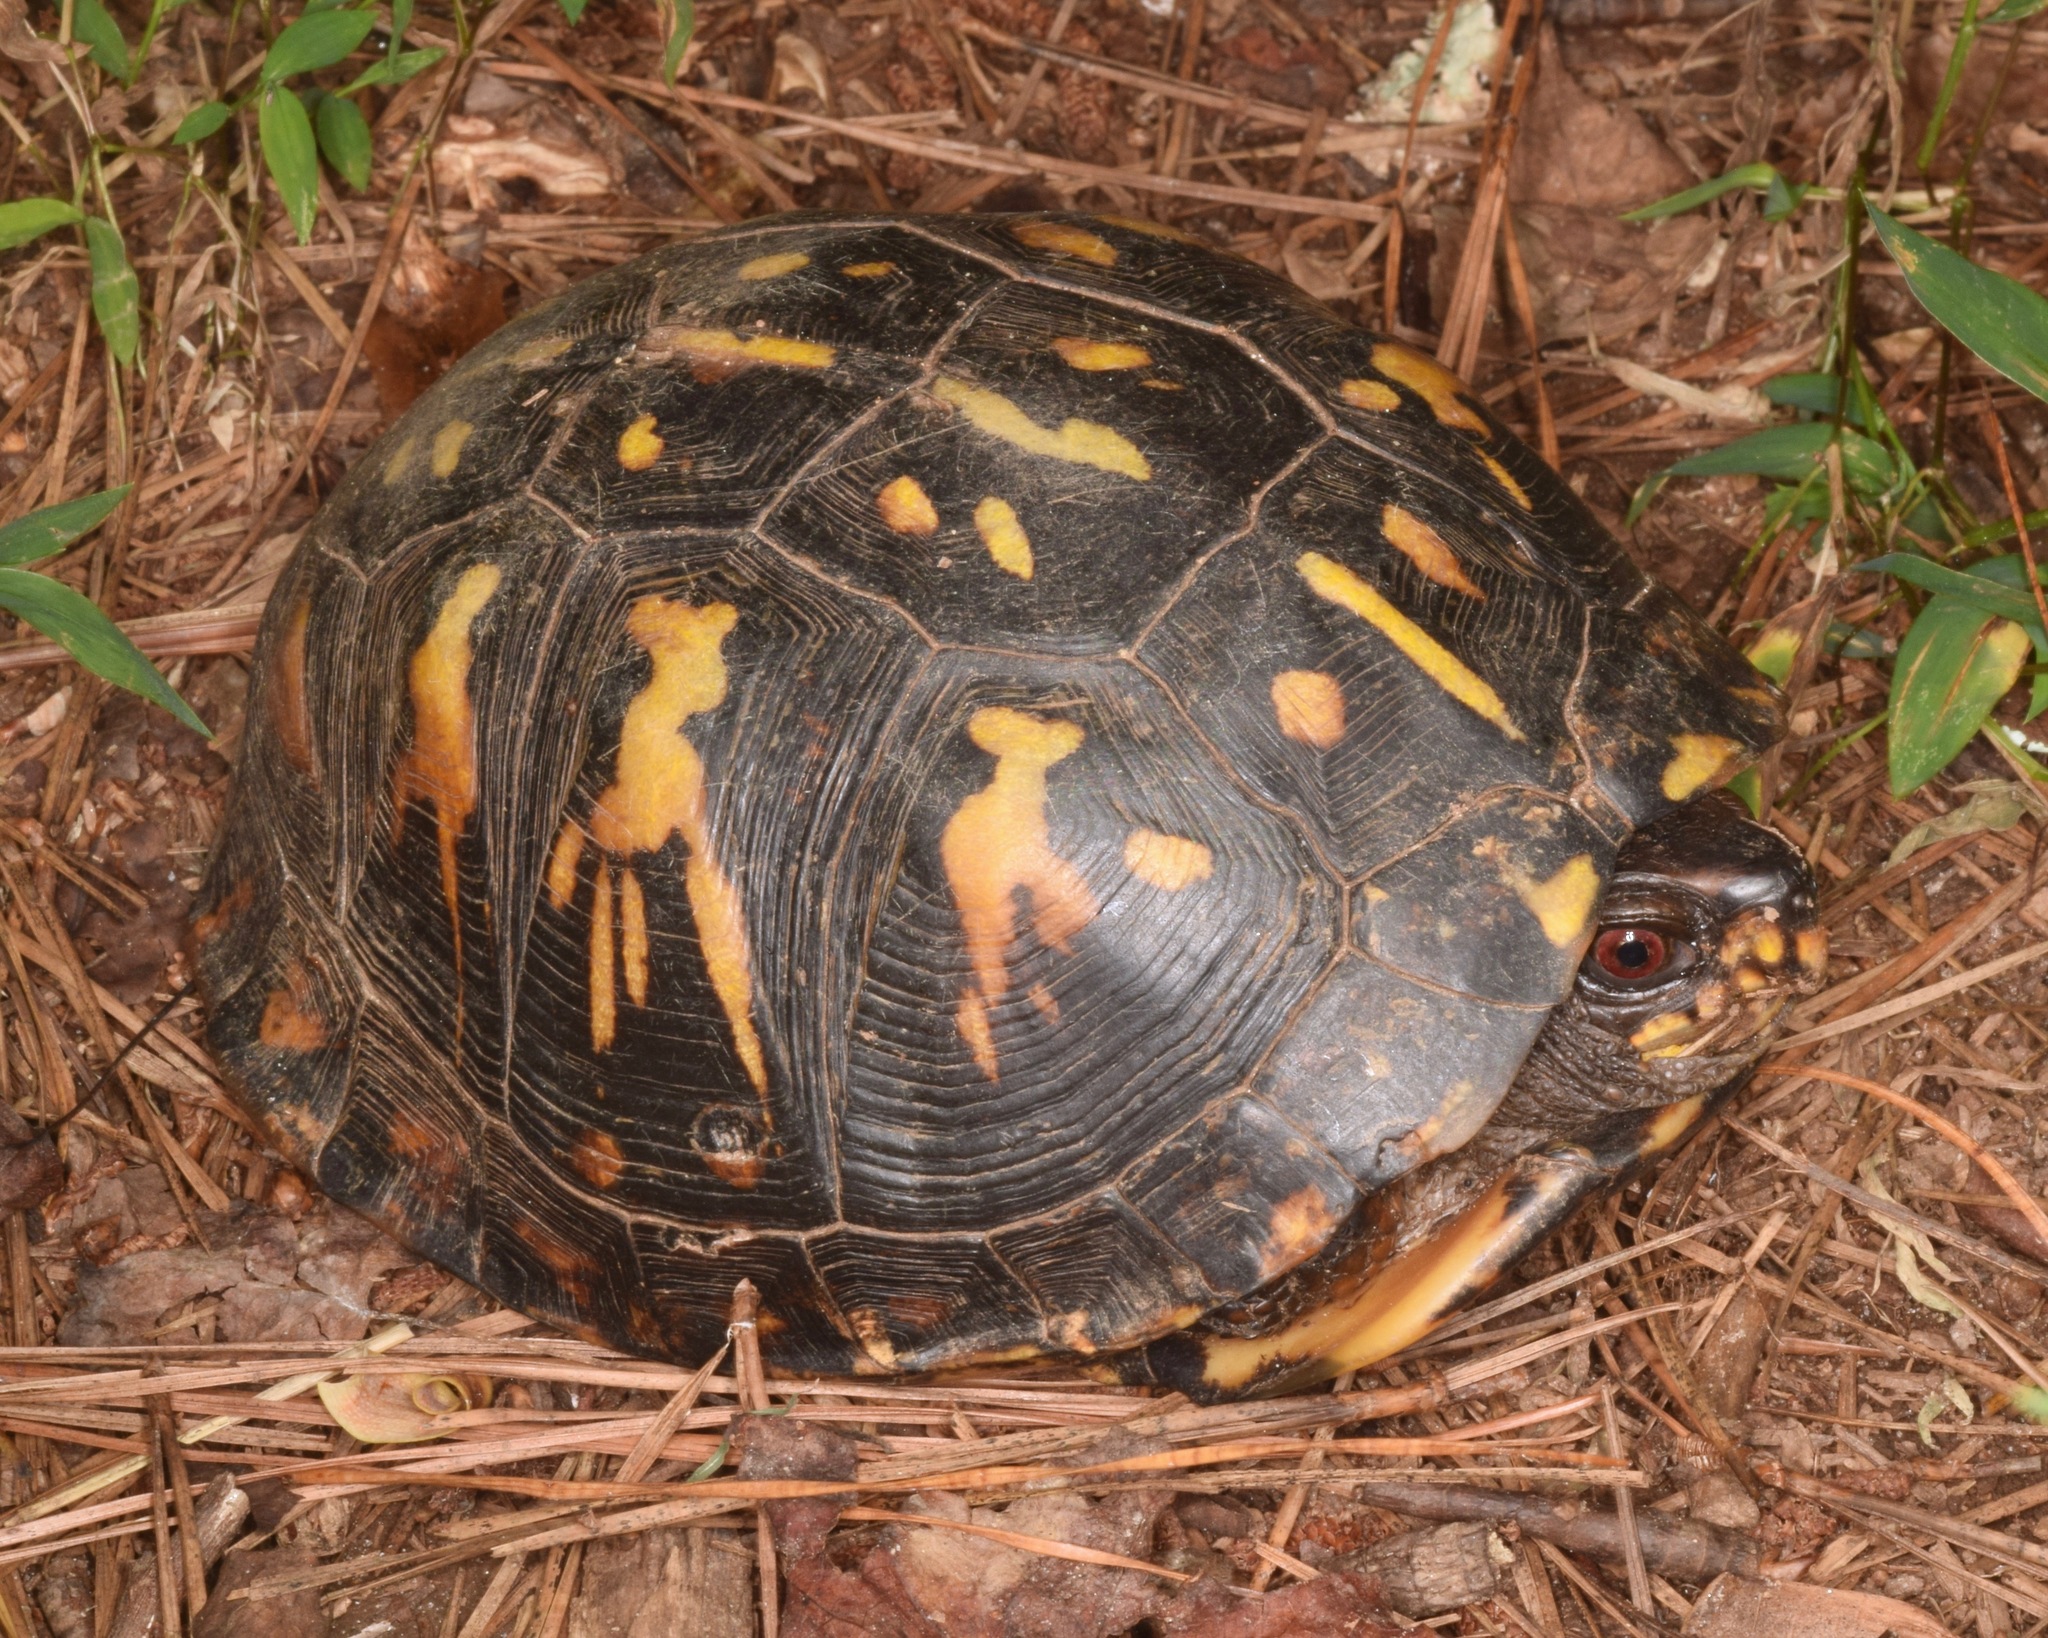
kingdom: Animalia
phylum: Chordata
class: Testudines
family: Emydidae
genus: Terrapene
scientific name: Terrapene carolina
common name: Common box turtle
